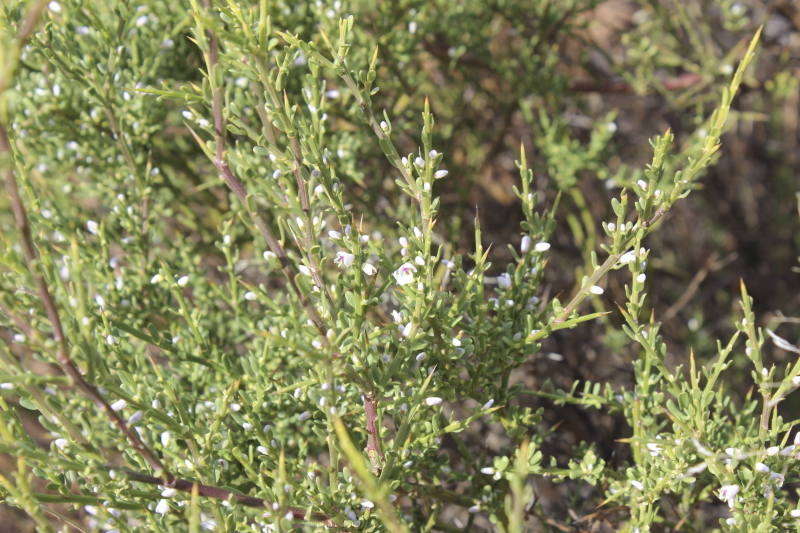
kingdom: Plantae
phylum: Tracheophyta
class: Magnoliopsida
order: Fabales
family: Polygalaceae
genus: Muraltia
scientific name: Muraltia spinosa
